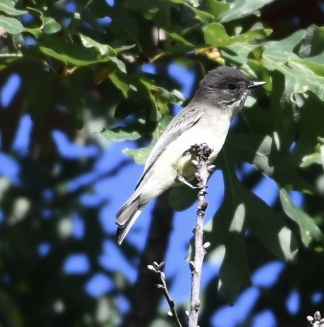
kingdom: Animalia
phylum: Chordata
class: Aves
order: Passeriformes
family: Tyrannidae
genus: Sayornis
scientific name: Sayornis phoebe
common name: Eastern phoebe
